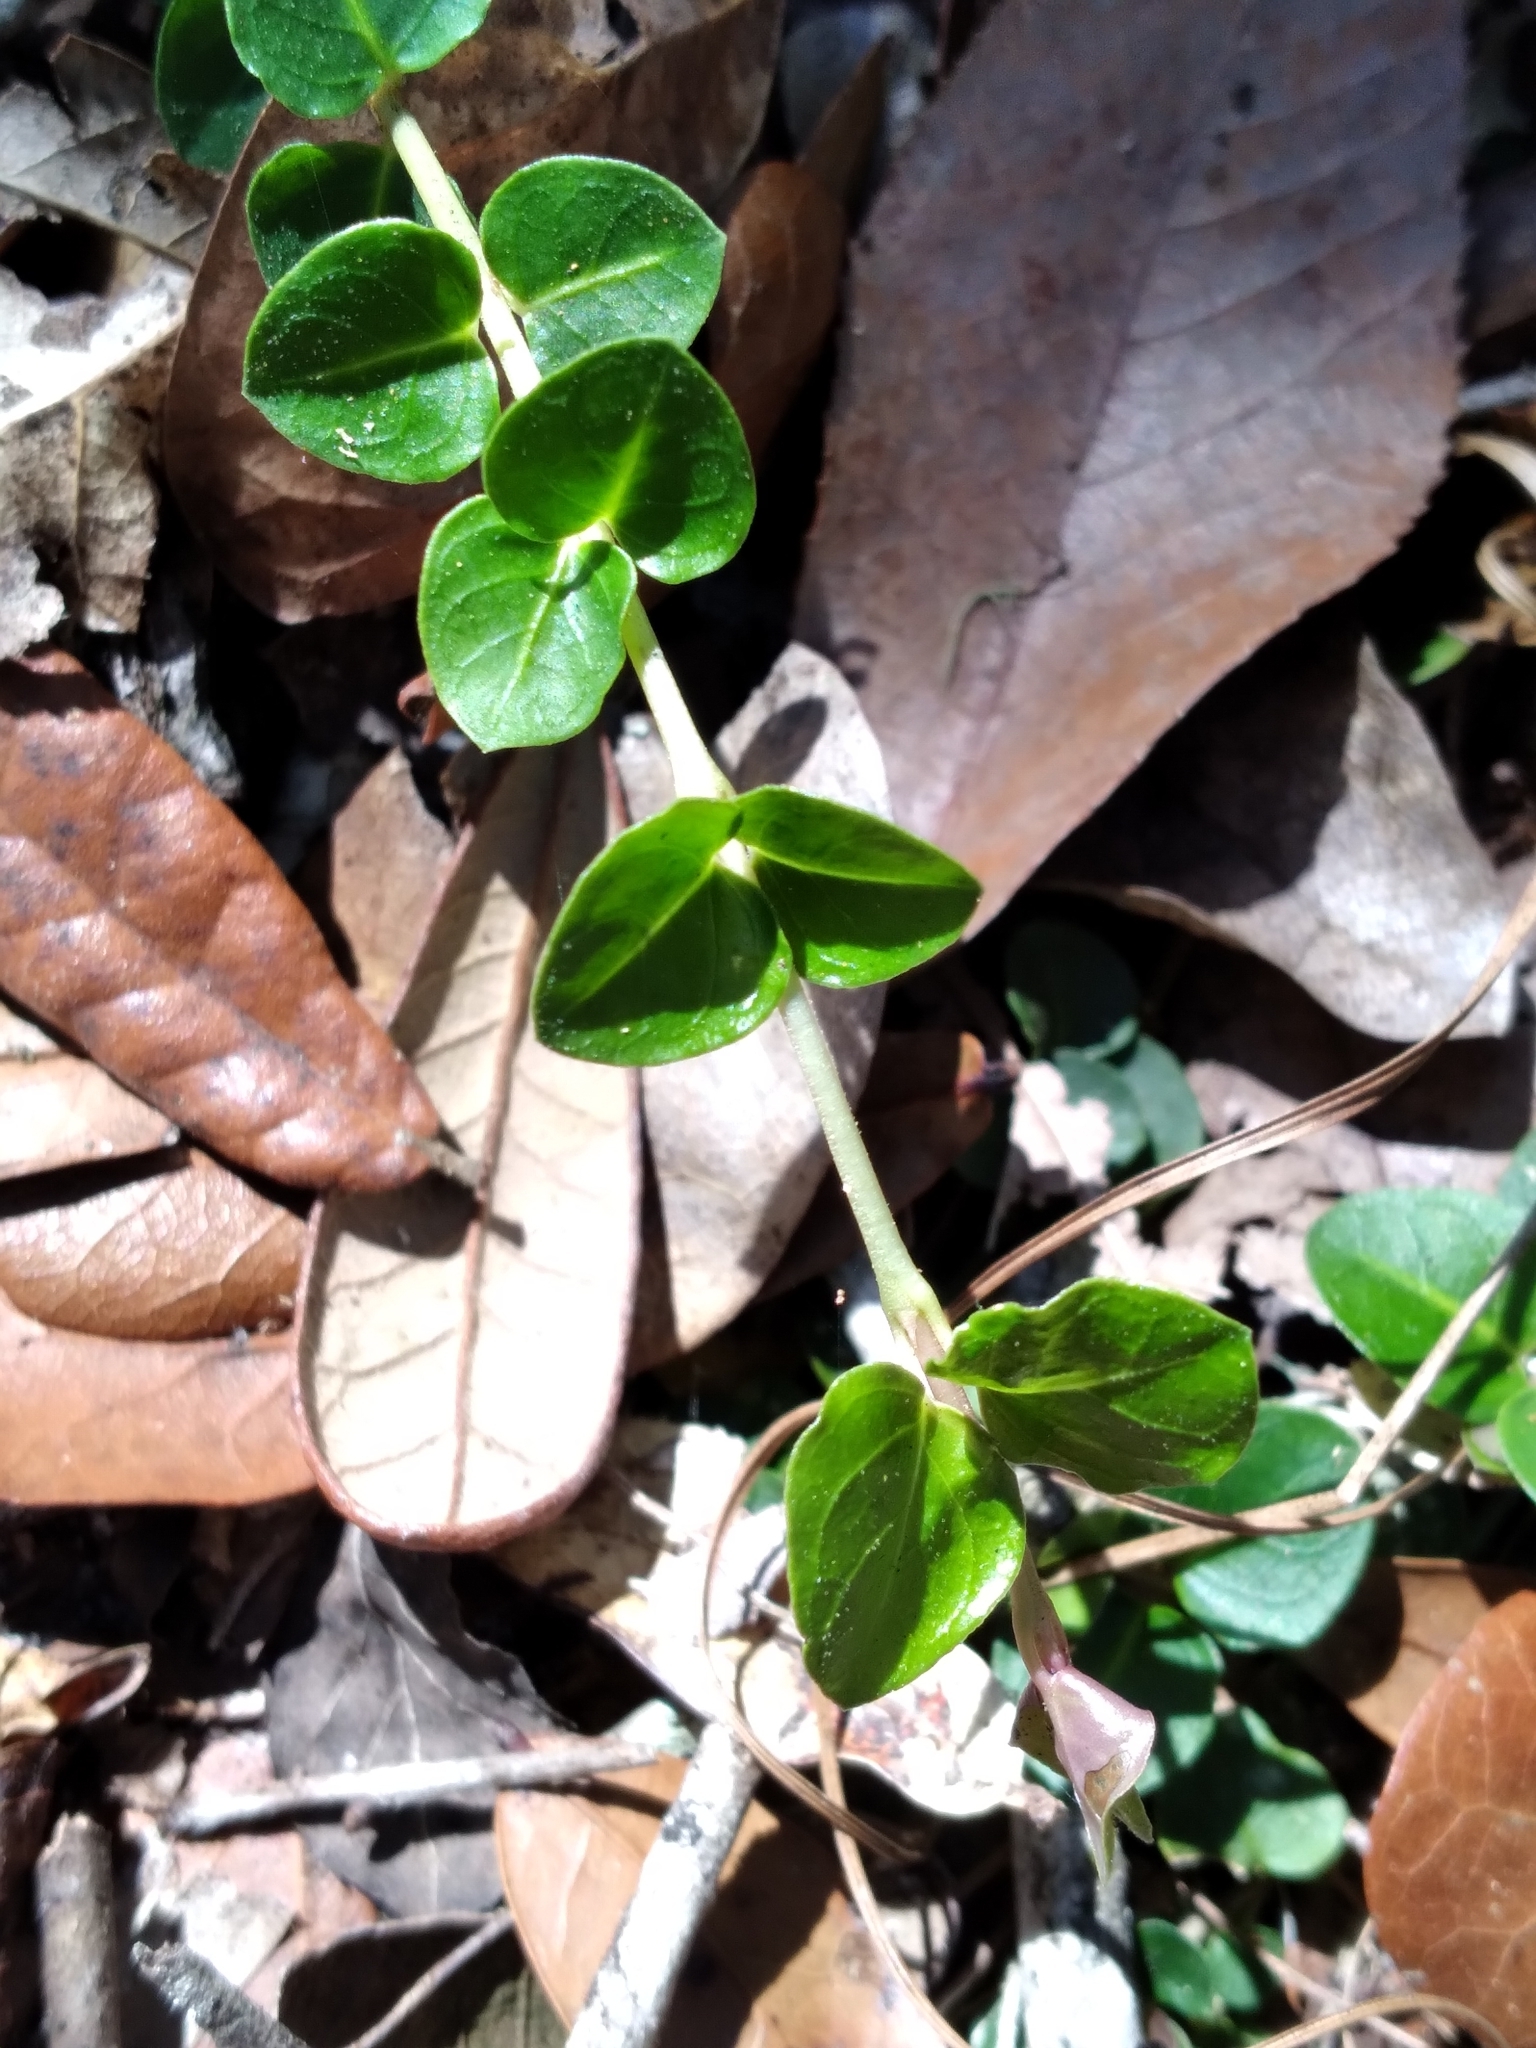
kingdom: Plantae
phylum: Tracheophyta
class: Magnoliopsida
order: Gentianales
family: Rubiaceae
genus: Mitchella
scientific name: Mitchella repens
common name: Partridge-berry
